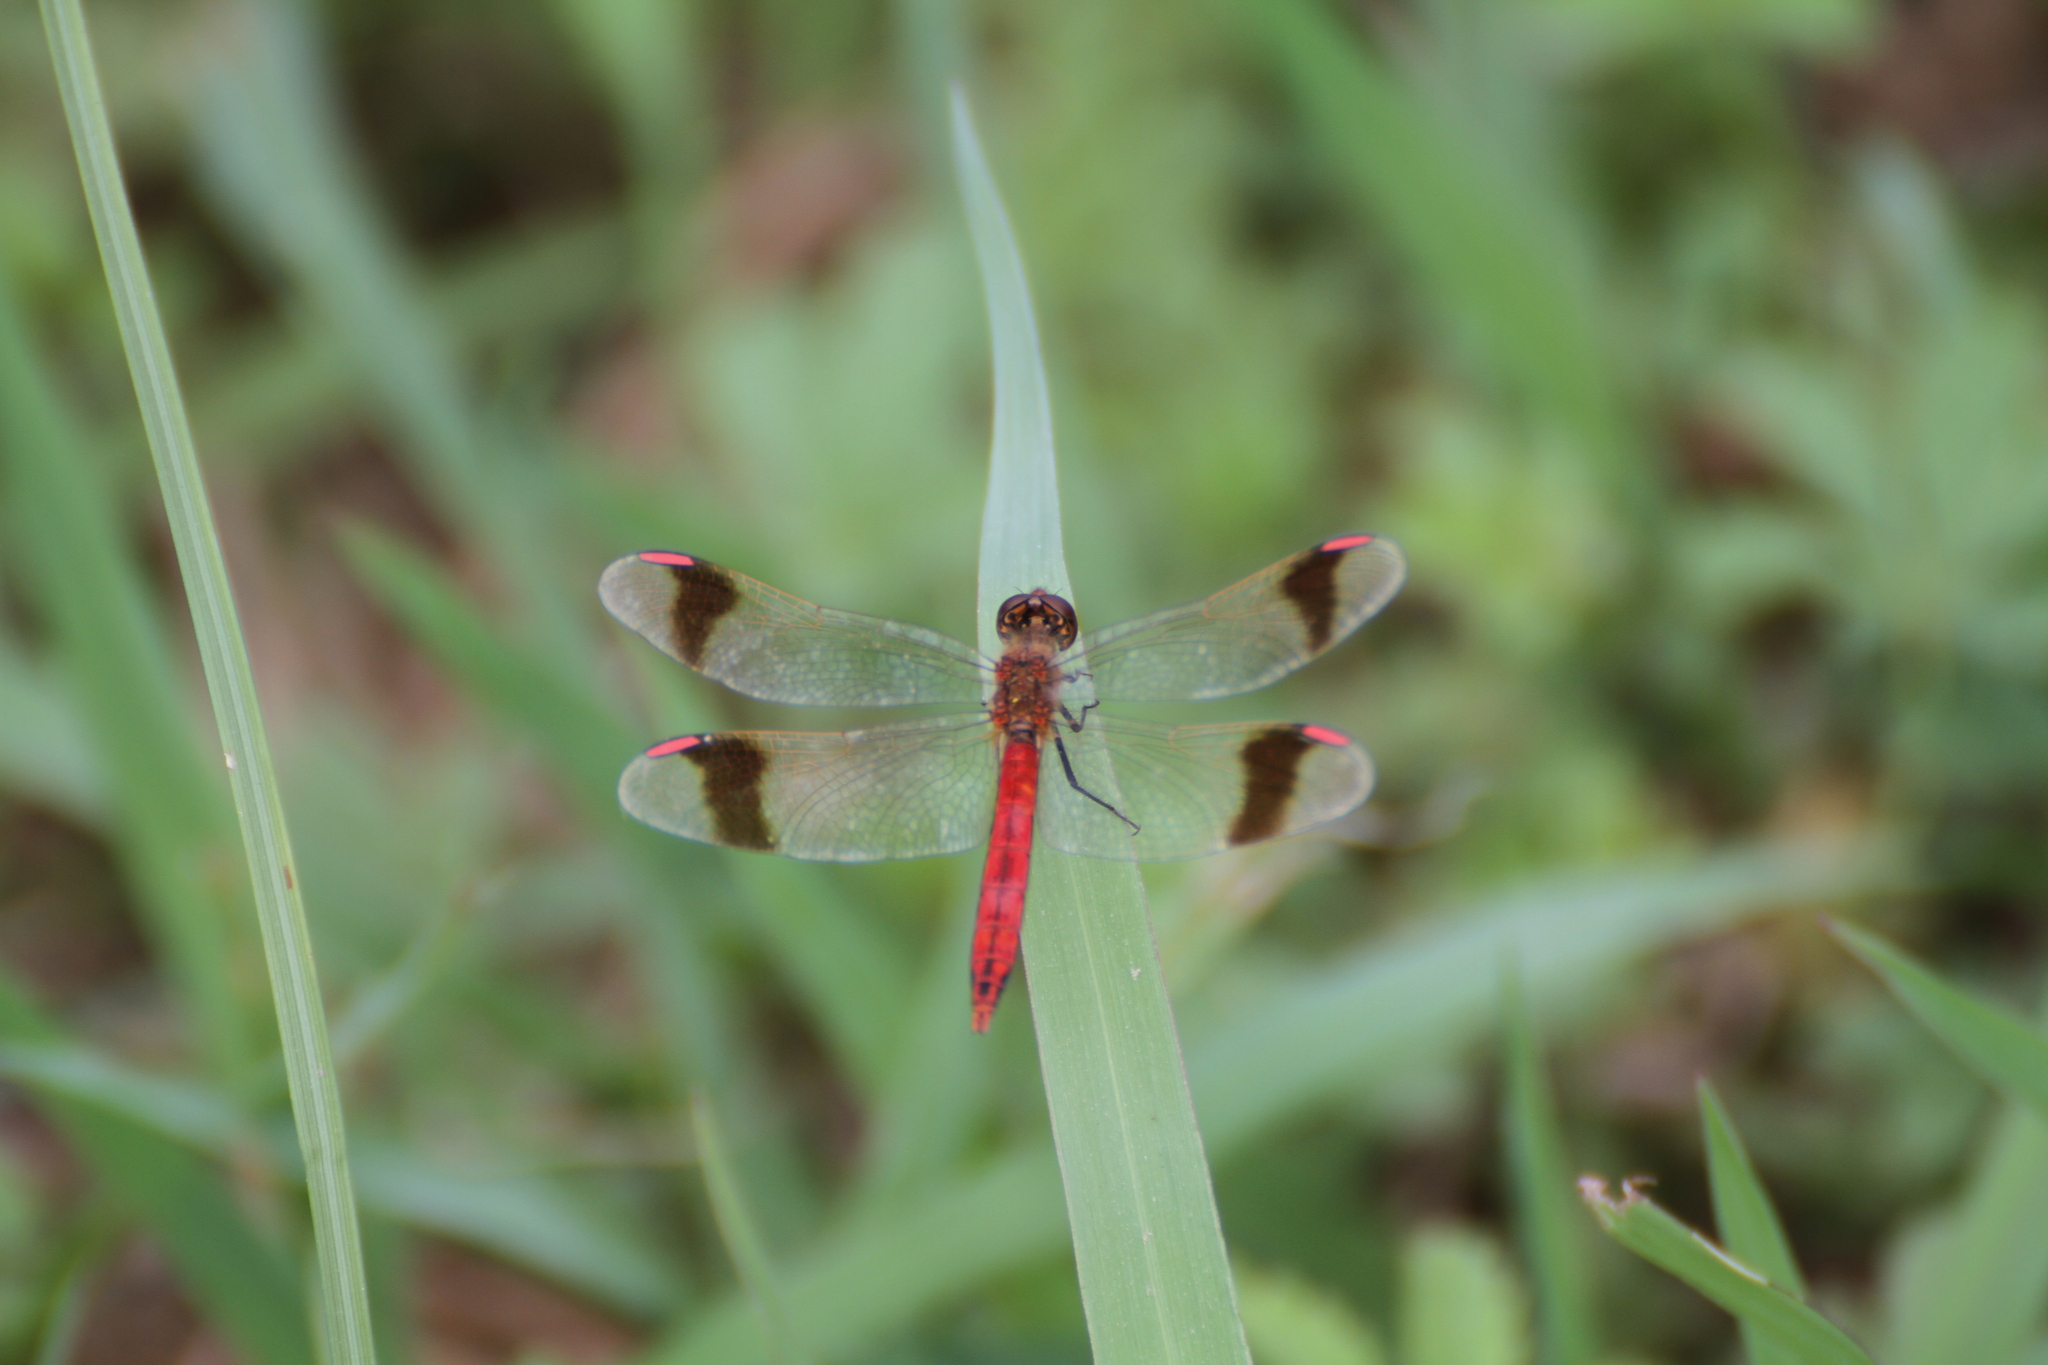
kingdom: Animalia
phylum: Arthropoda
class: Insecta
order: Odonata
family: Libellulidae
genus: Sympetrum
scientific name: Sympetrum pedemontanum
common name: Banded darter
